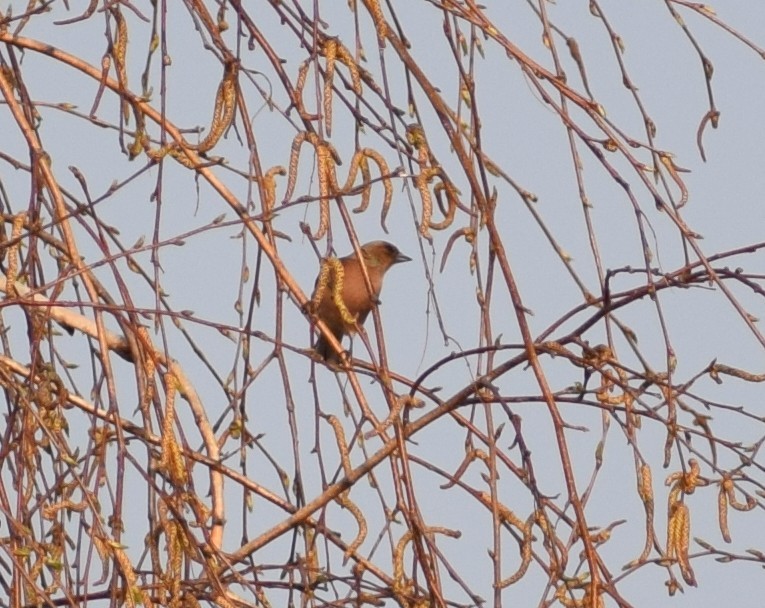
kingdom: Animalia
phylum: Chordata
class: Aves
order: Passeriformes
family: Fringillidae
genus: Fringilla
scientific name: Fringilla coelebs
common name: Common chaffinch
